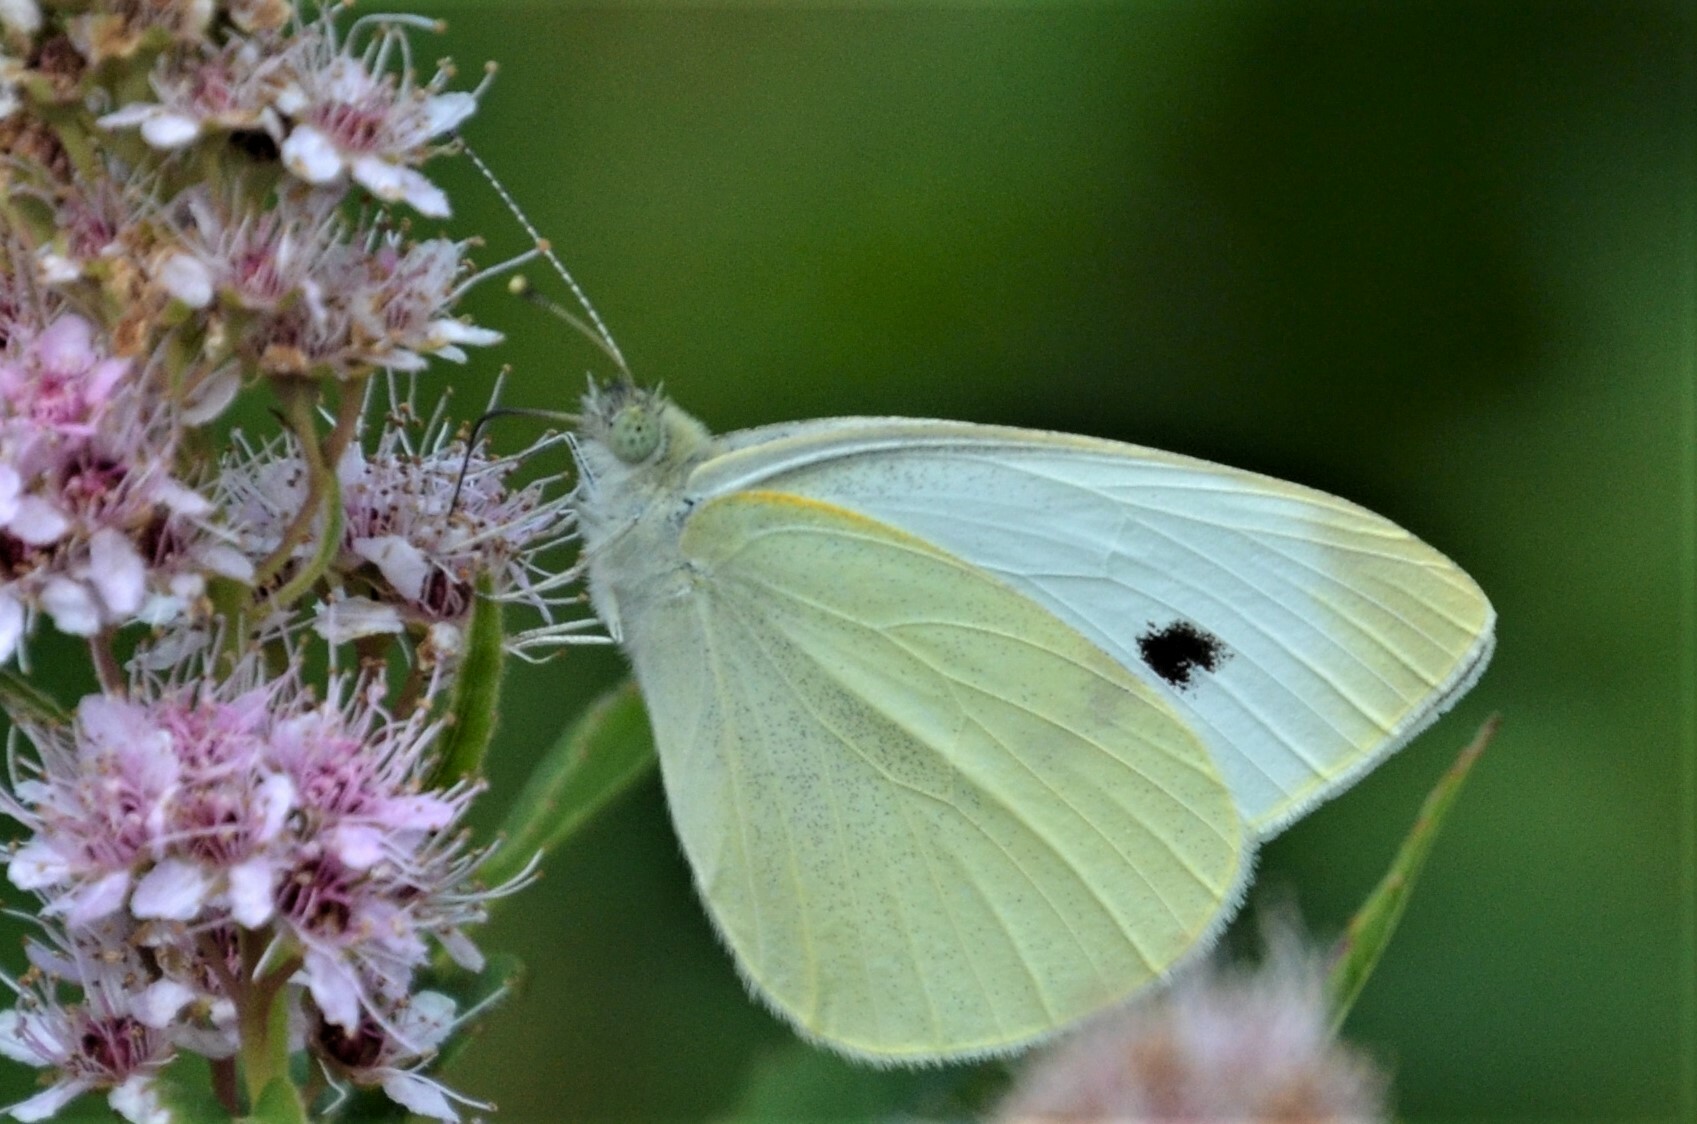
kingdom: Animalia
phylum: Arthropoda
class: Insecta
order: Lepidoptera
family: Pieridae
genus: Pieris
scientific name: Pieris rapae
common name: Small white
